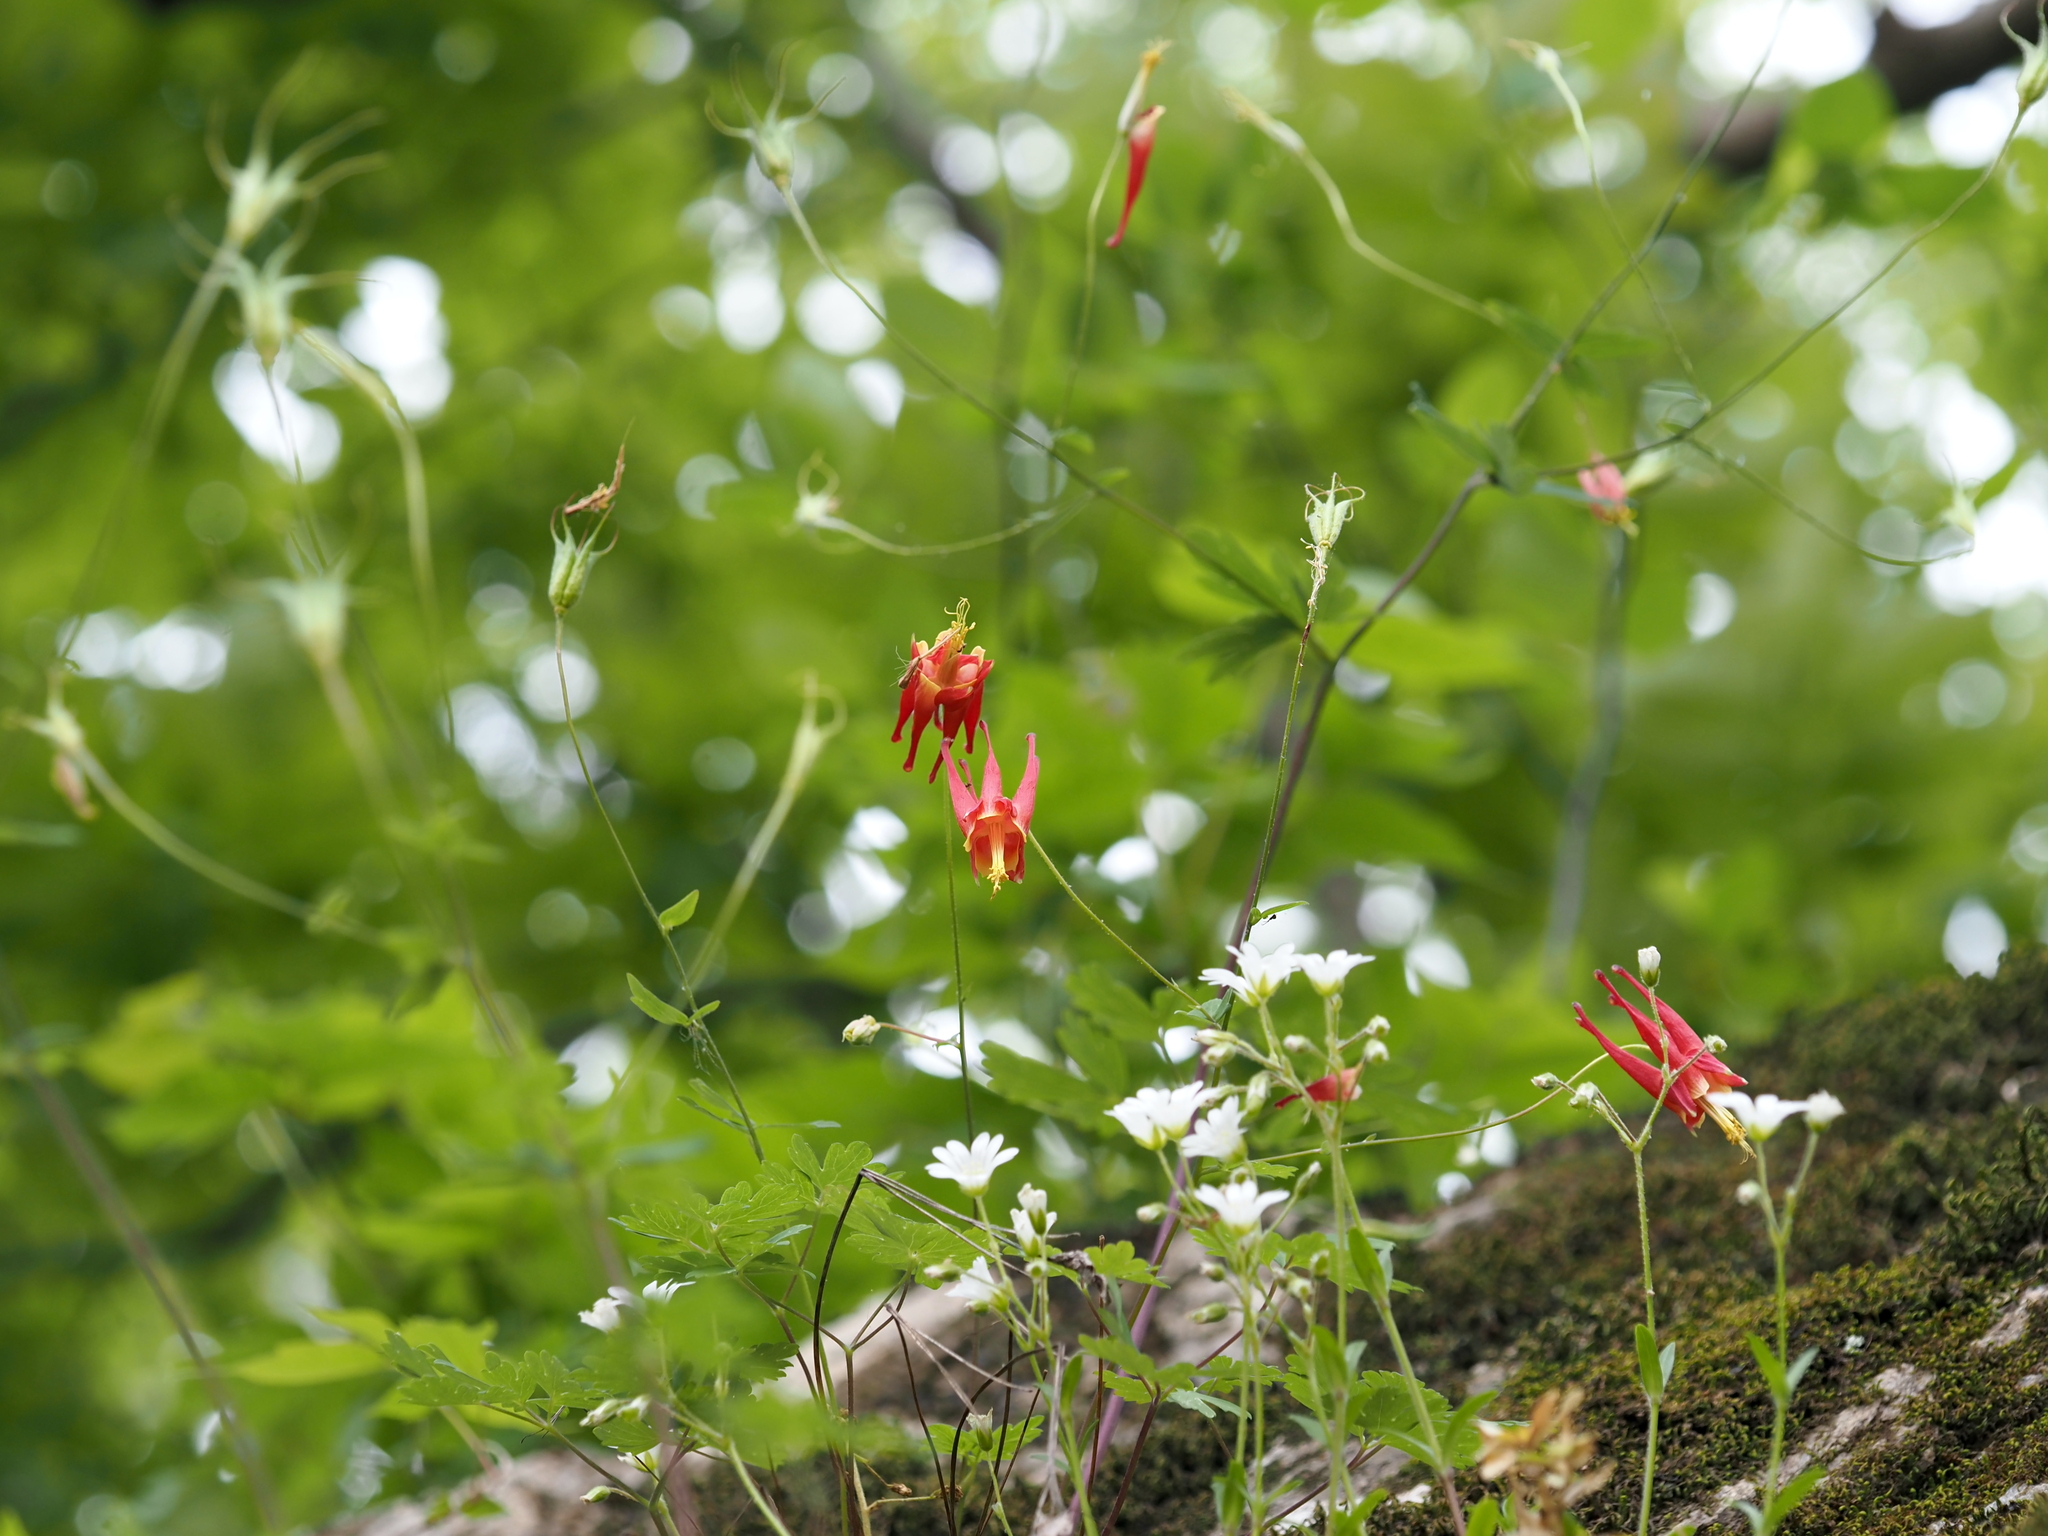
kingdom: Plantae
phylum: Tracheophyta
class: Magnoliopsida
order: Ranunculales
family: Ranunculaceae
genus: Aquilegia
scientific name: Aquilegia canadensis
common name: American columbine
